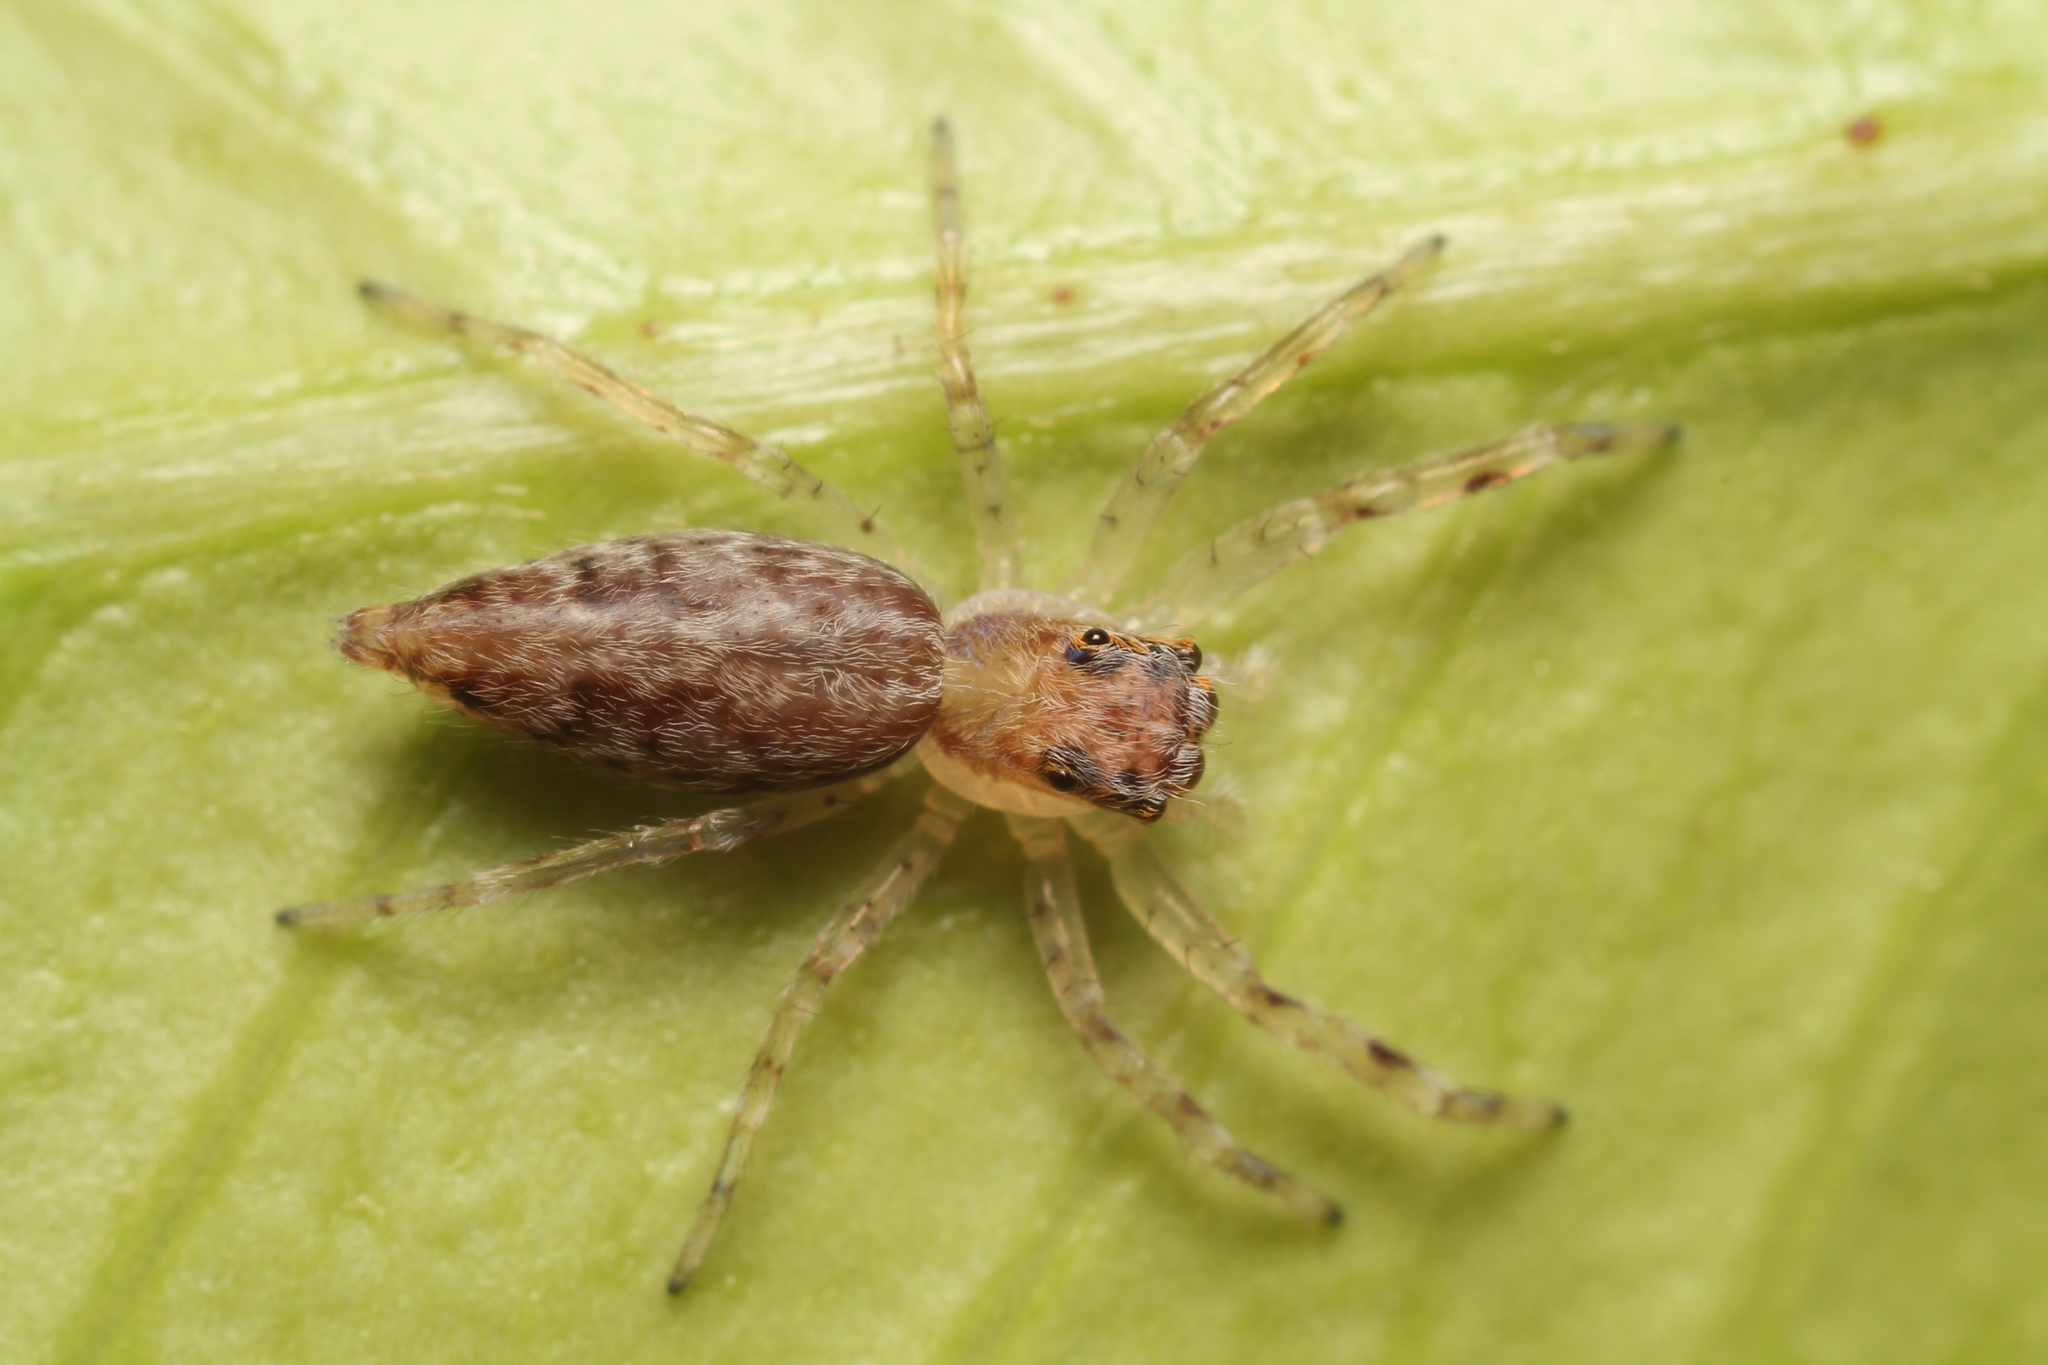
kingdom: Animalia
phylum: Arthropoda
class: Arachnida
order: Araneae
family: Salticidae
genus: Helpis
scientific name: Helpis minitabunda
